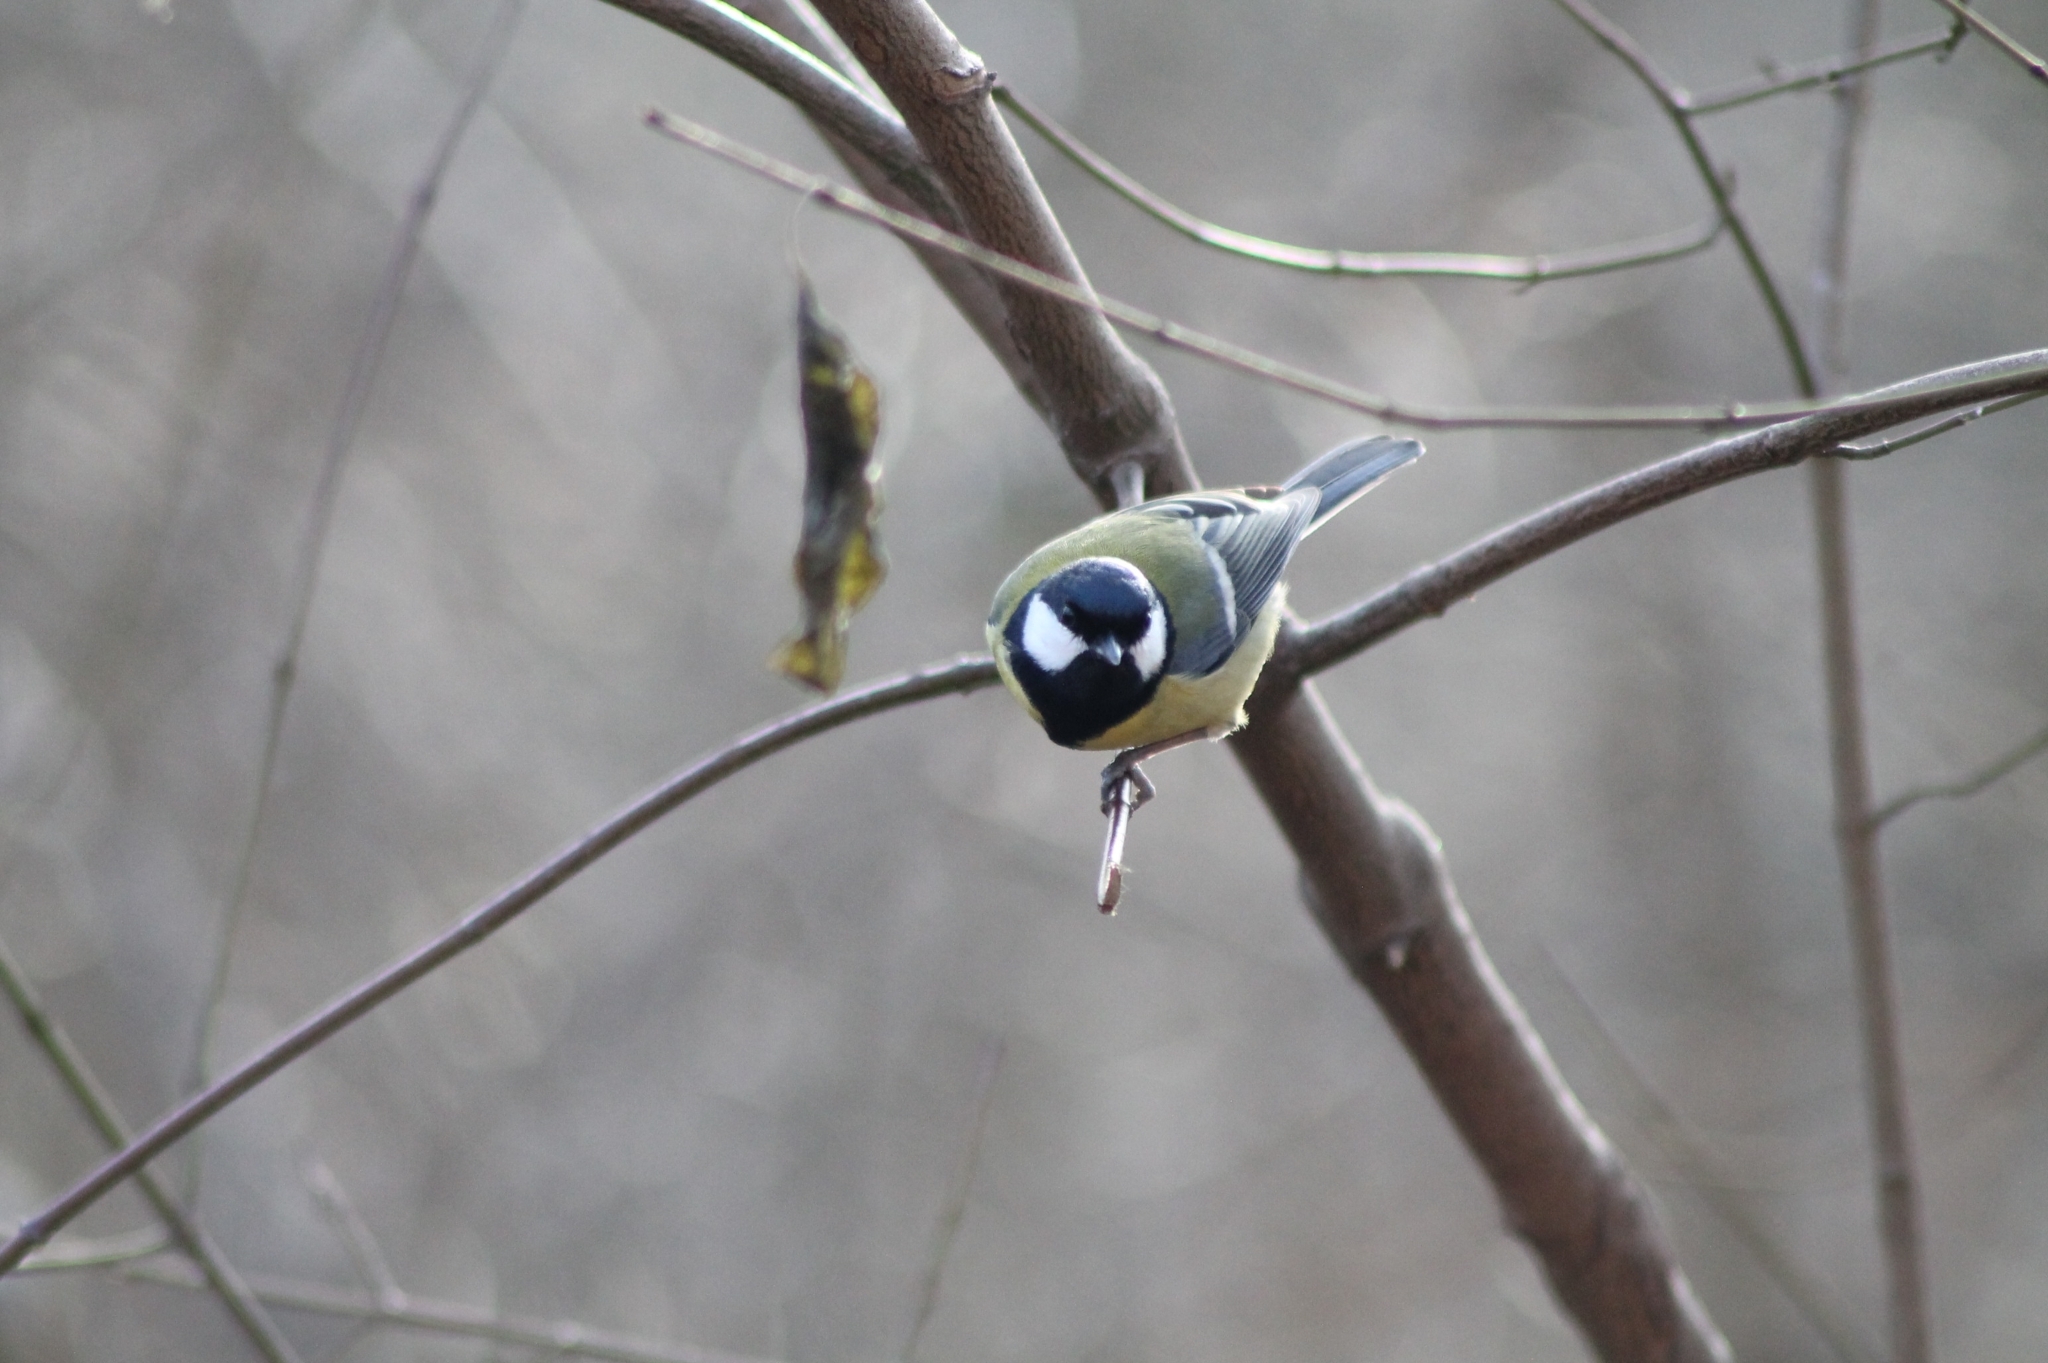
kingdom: Animalia
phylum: Chordata
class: Aves
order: Passeriformes
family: Paridae
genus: Parus
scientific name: Parus major
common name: Great tit
